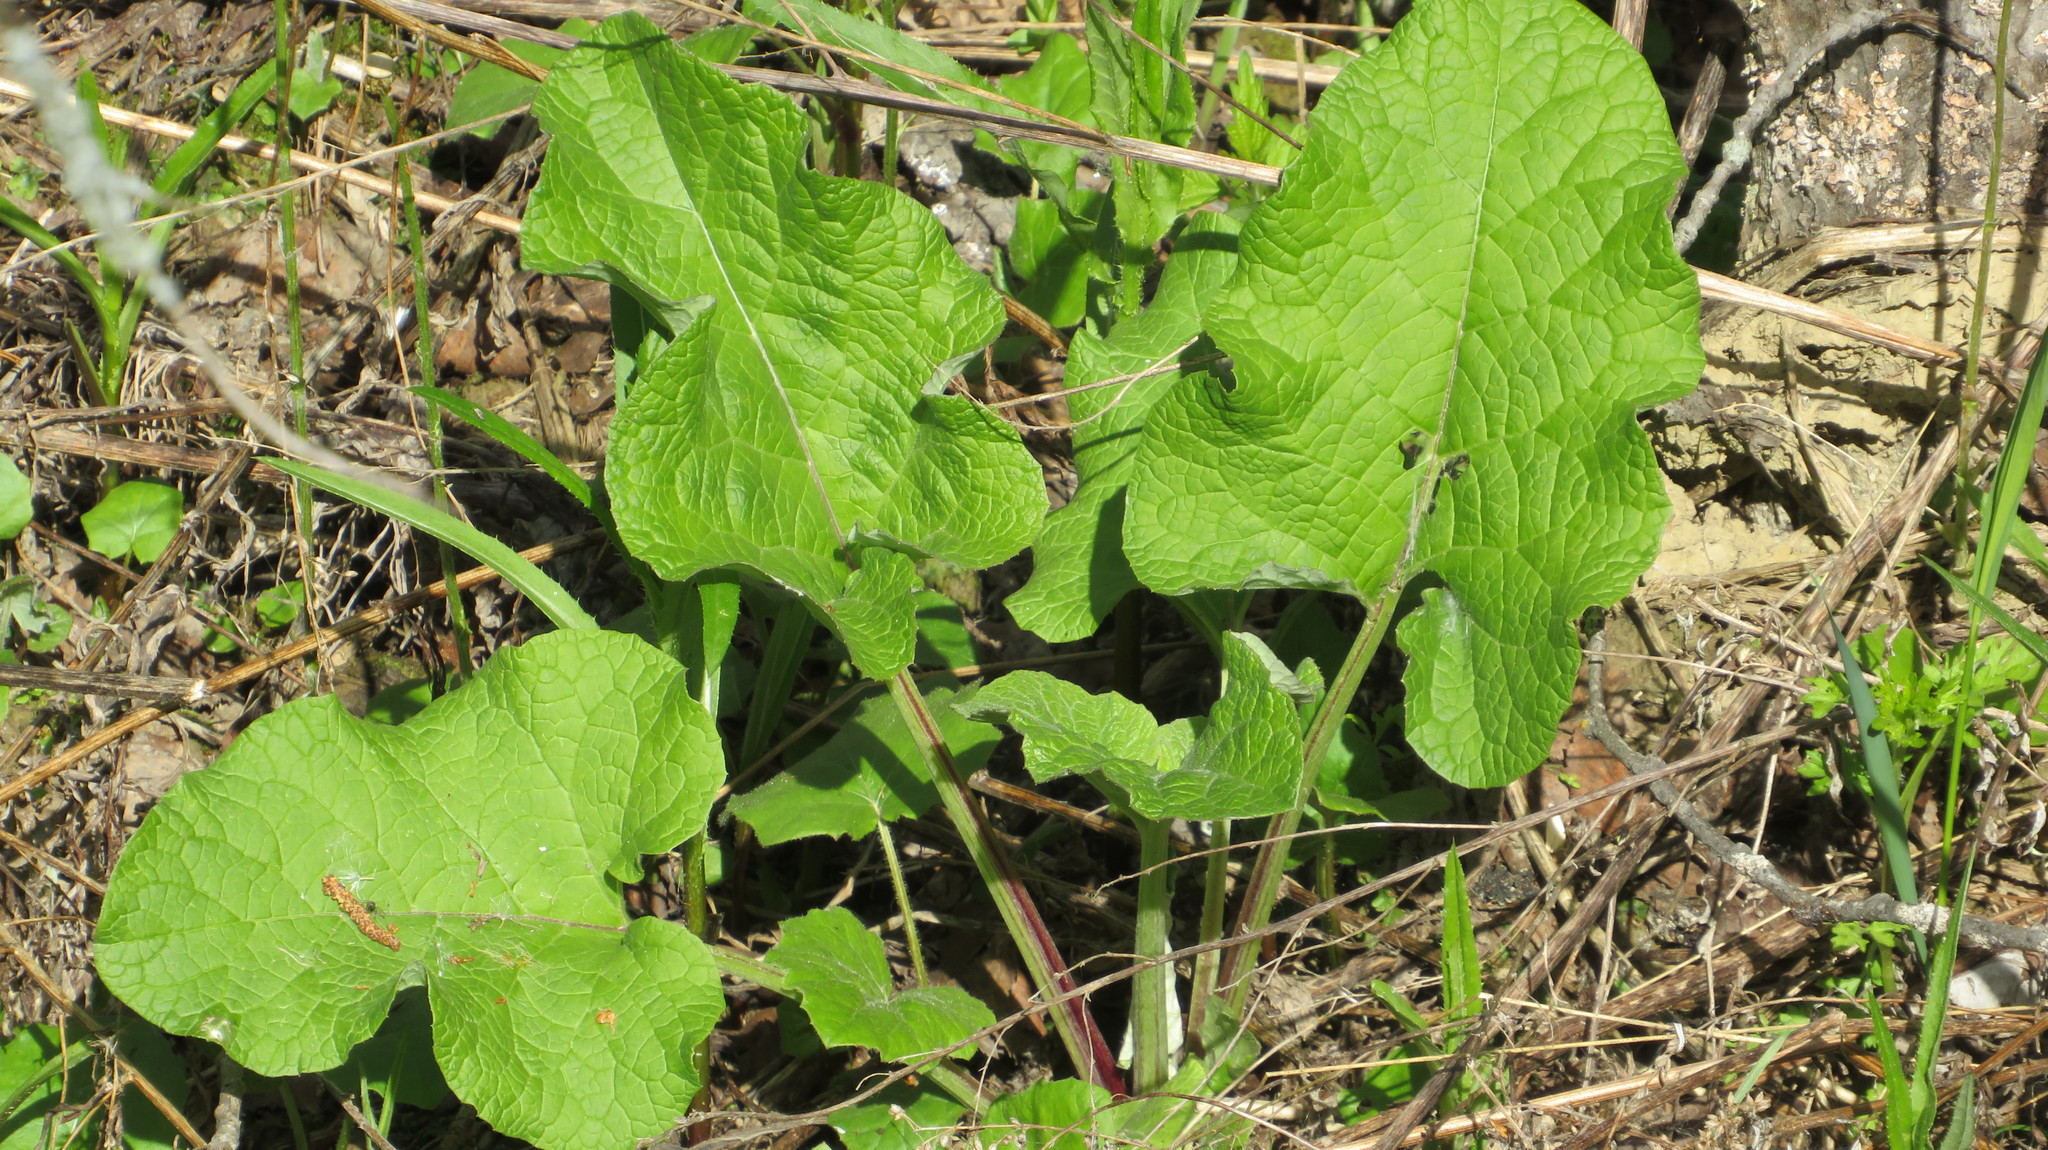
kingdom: Plantae
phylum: Tracheophyta
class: Magnoliopsida
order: Asterales
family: Asteraceae
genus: Arctium
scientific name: Arctium minus
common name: Lesser burdock
